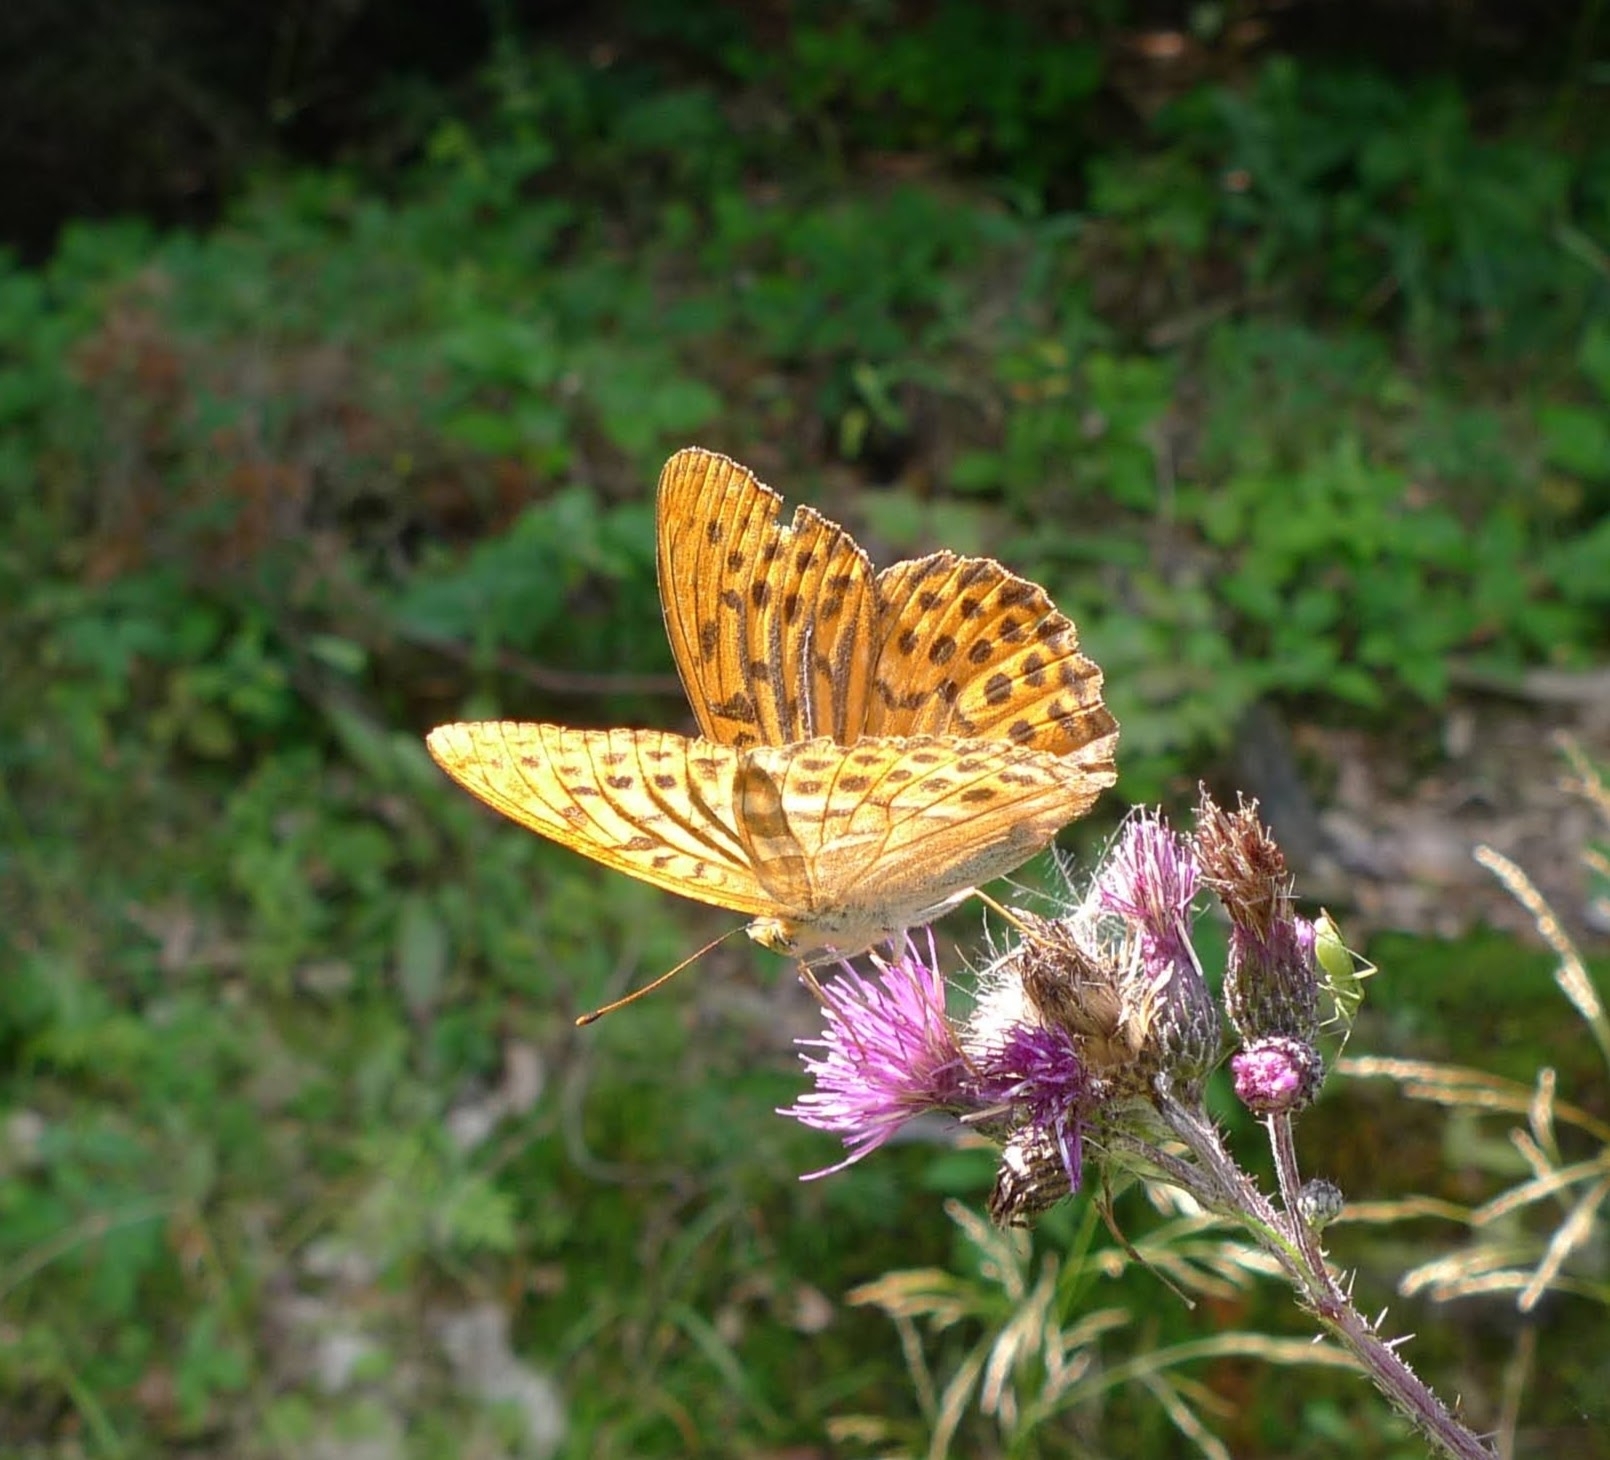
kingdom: Animalia
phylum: Arthropoda
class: Insecta
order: Lepidoptera
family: Nymphalidae
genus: Argynnis
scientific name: Argynnis paphia
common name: Silver-washed fritillary
